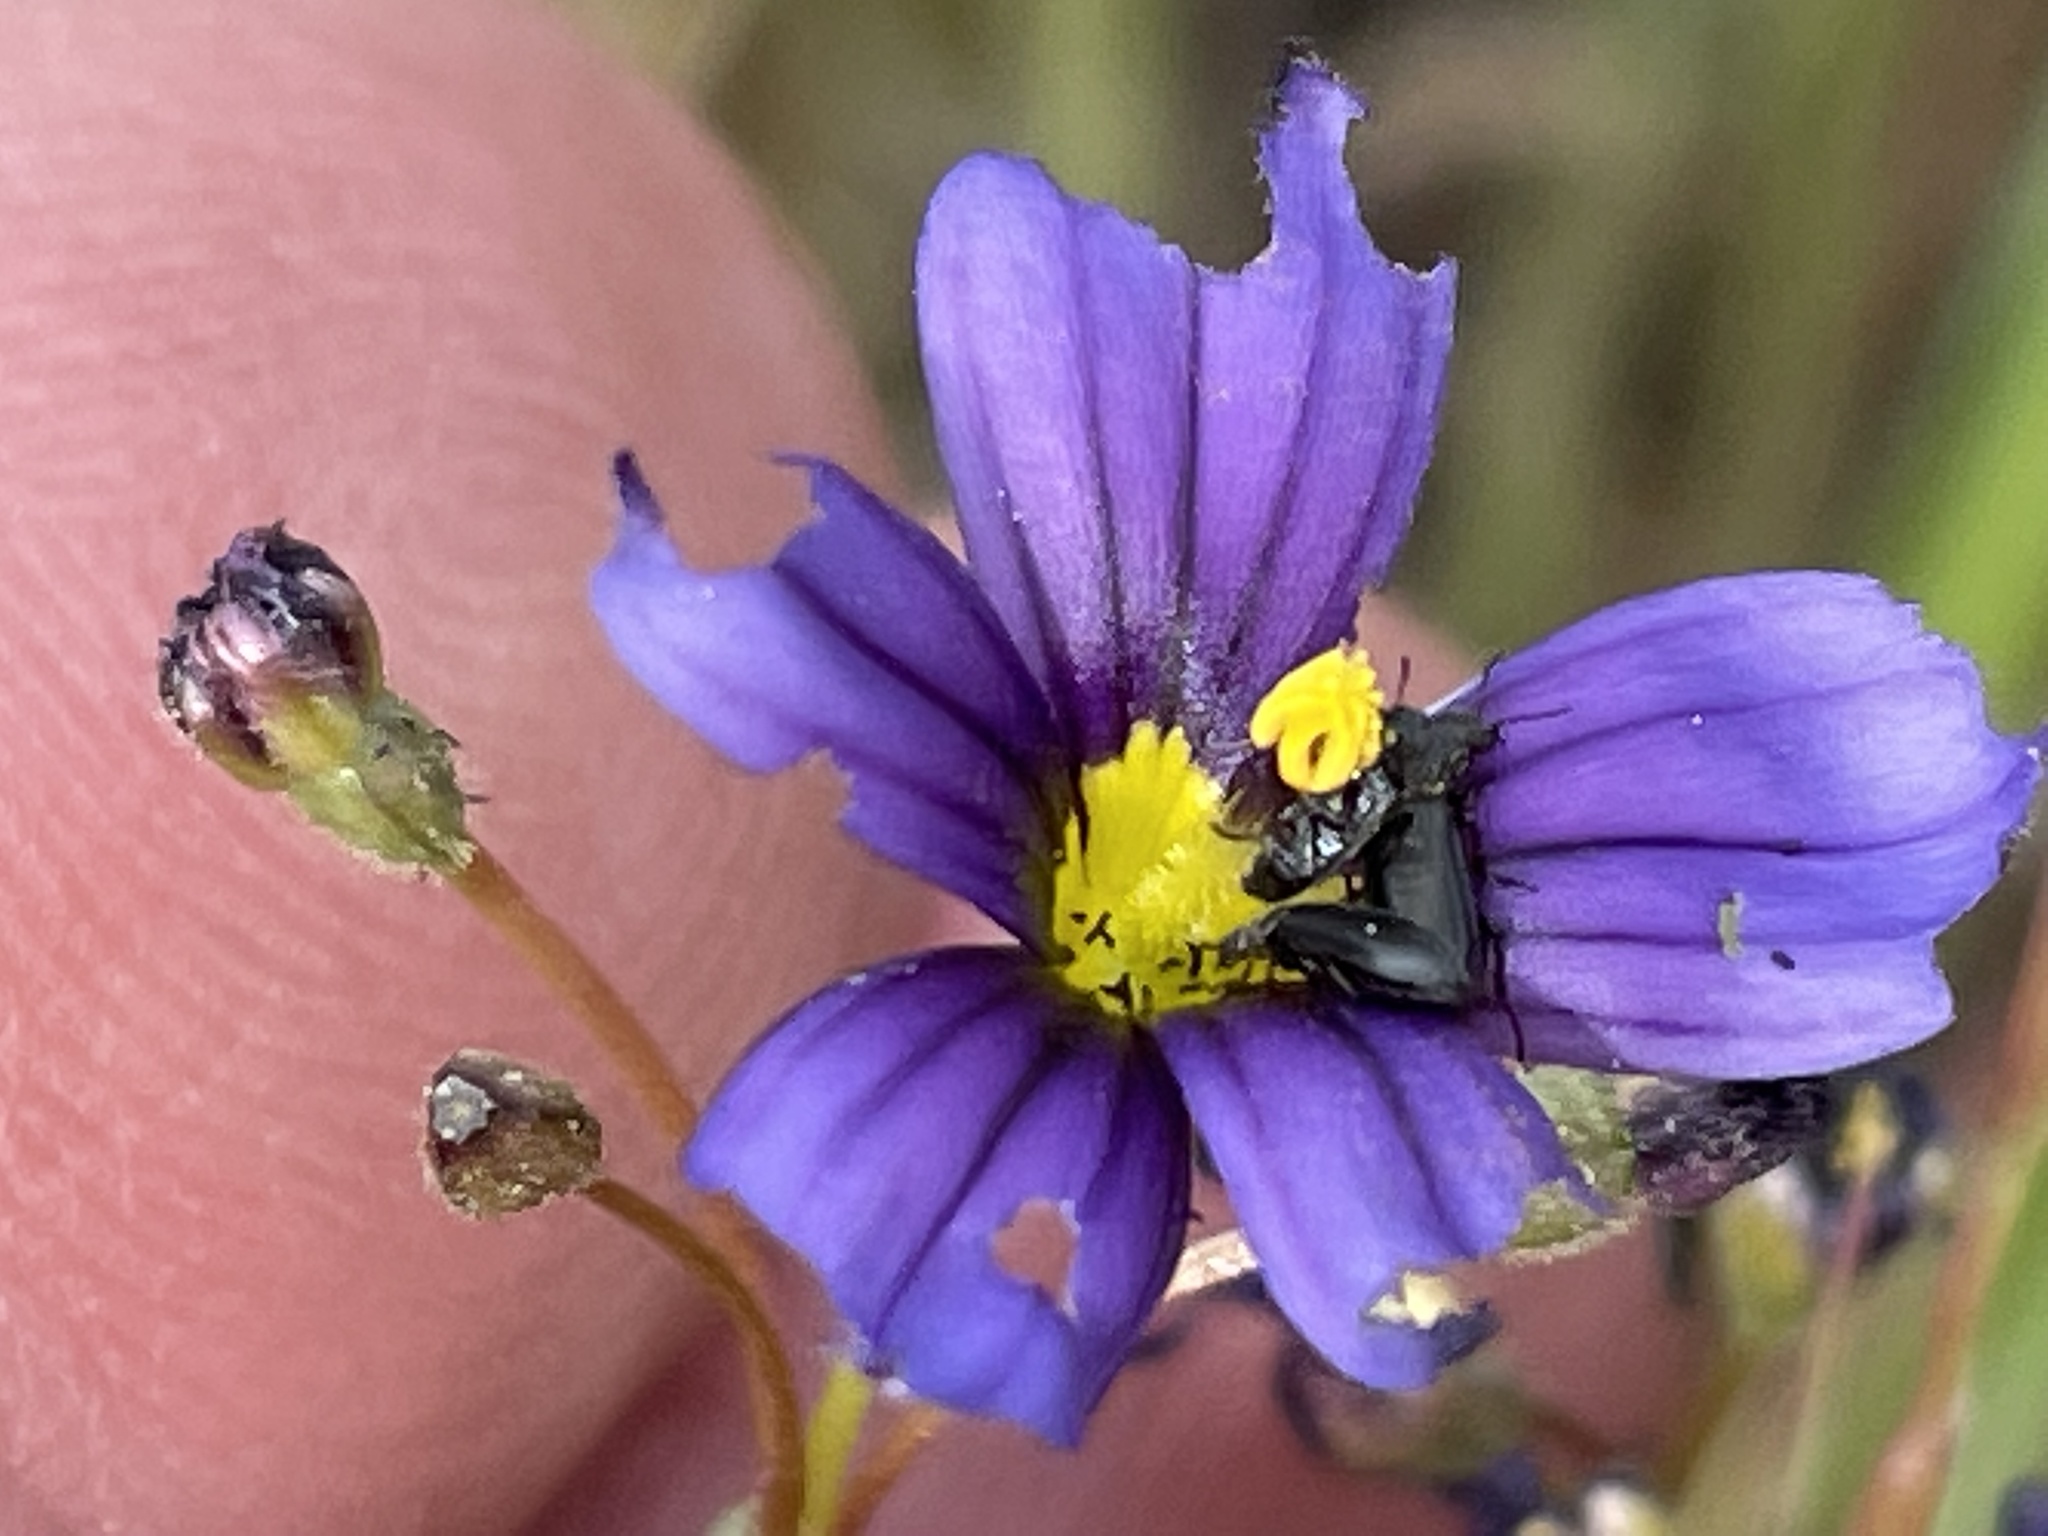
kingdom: Plantae
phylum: Tracheophyta
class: Liliopsida
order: Asparagales
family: Iridaceae
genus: Sisyrinchium
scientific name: Sisyrinchium bellum
